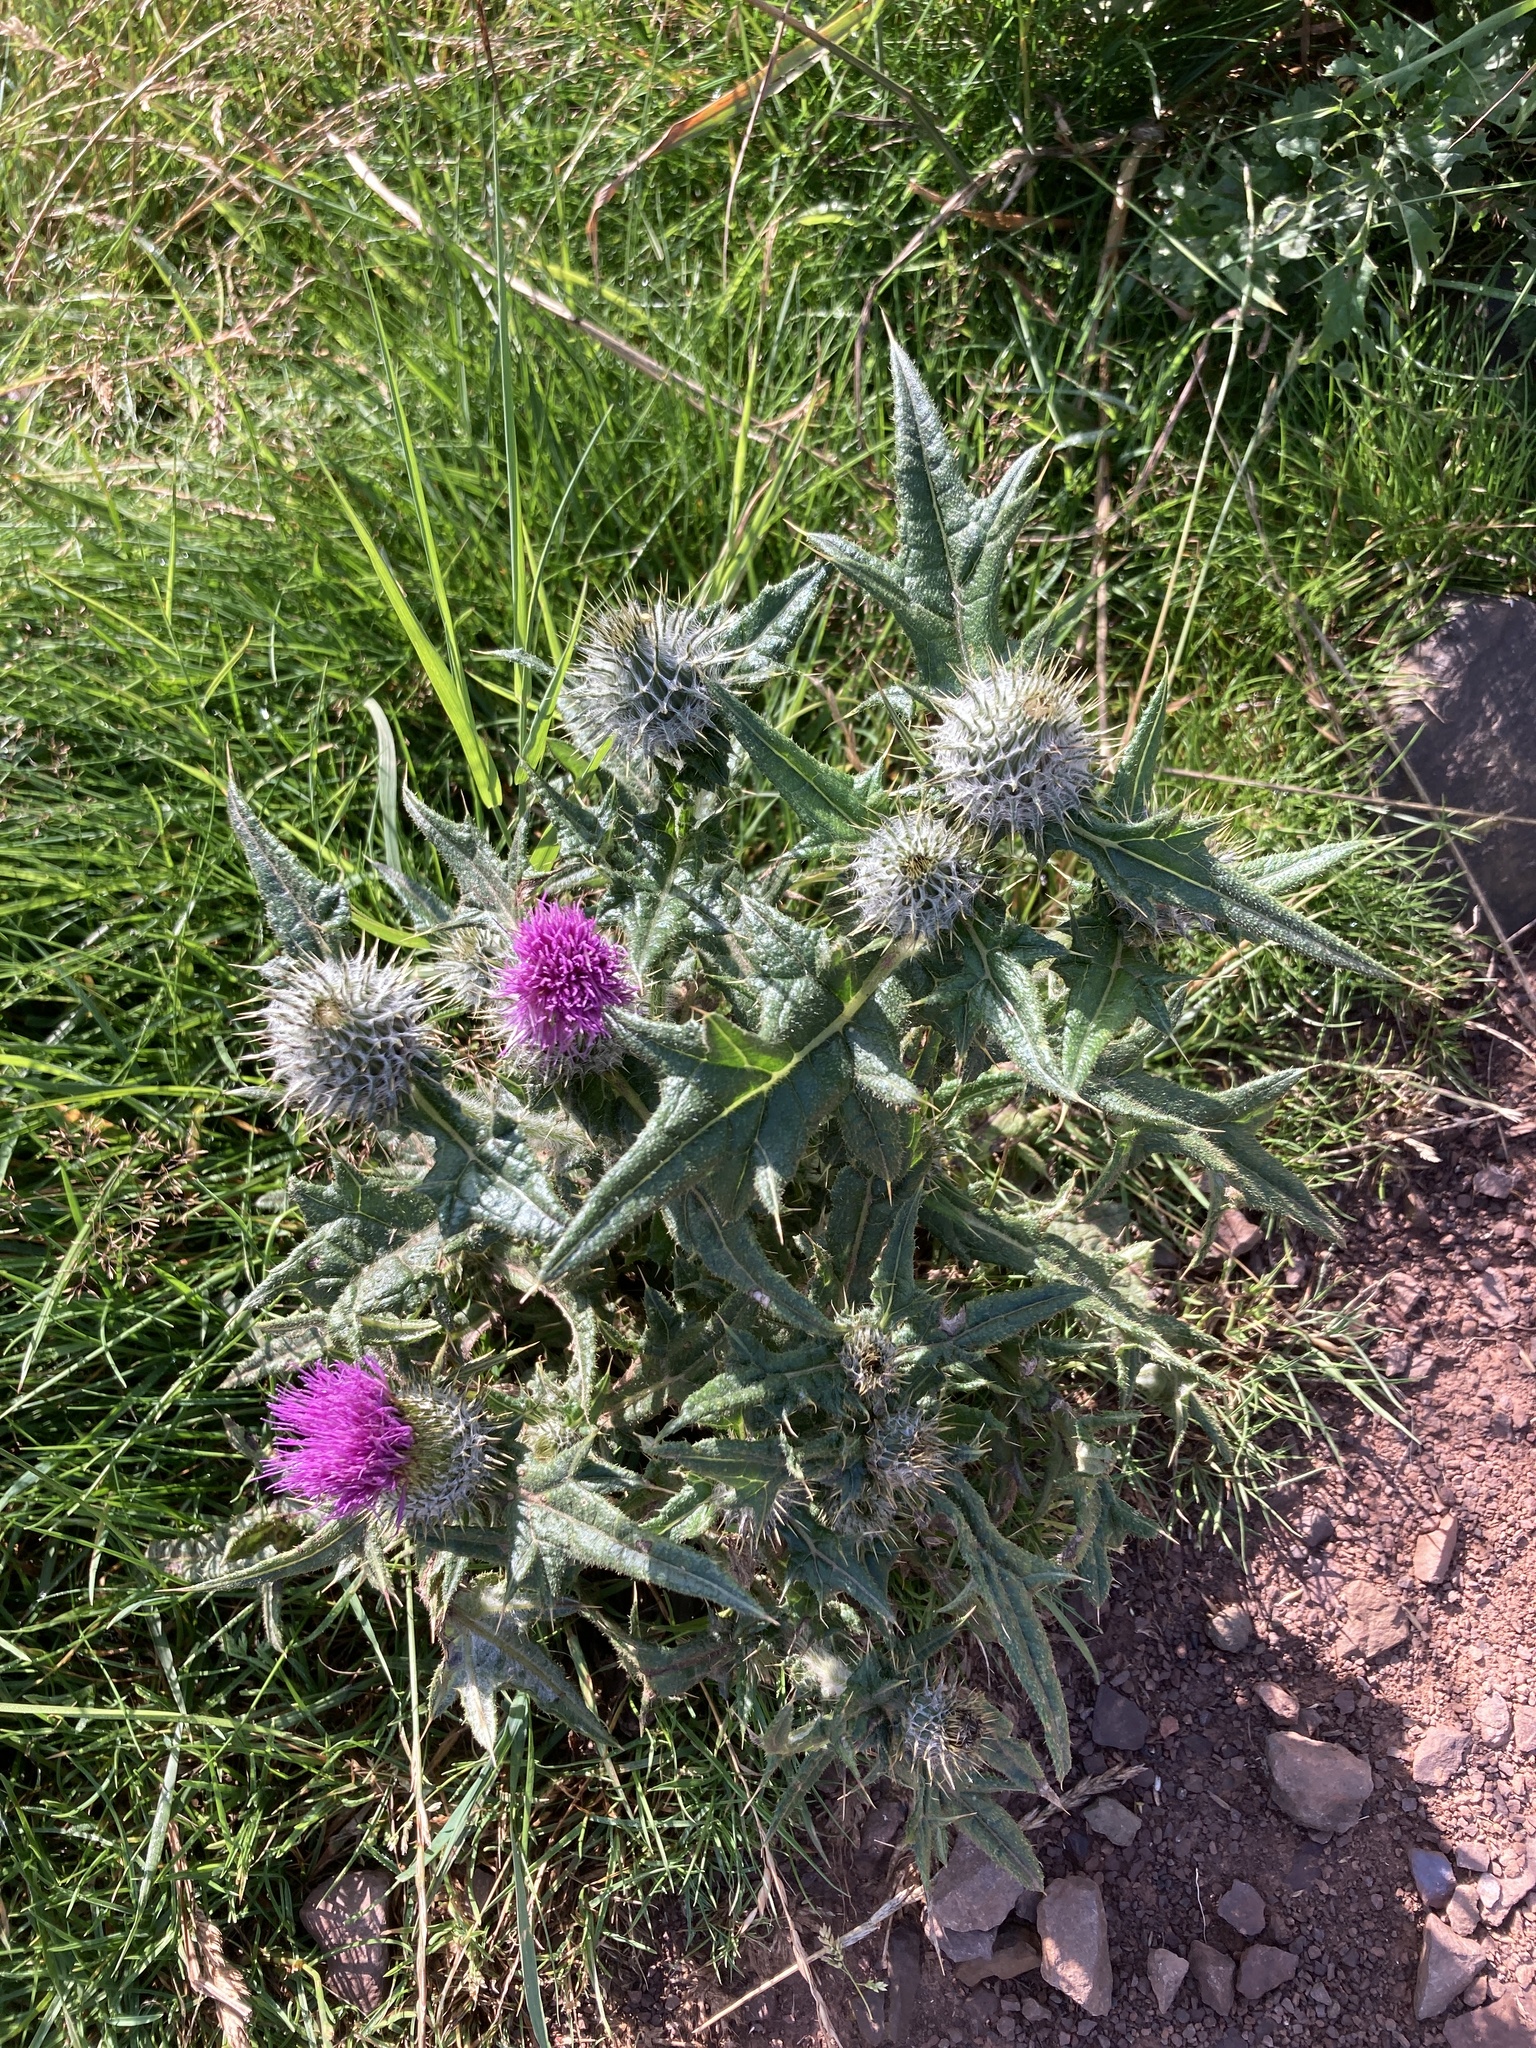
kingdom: Plantae
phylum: Tracheophyta
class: Magnoliopsida
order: Asterales
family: Asteraceae
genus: Cirsium
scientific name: Cirsium vulgare
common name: Bull thistle
